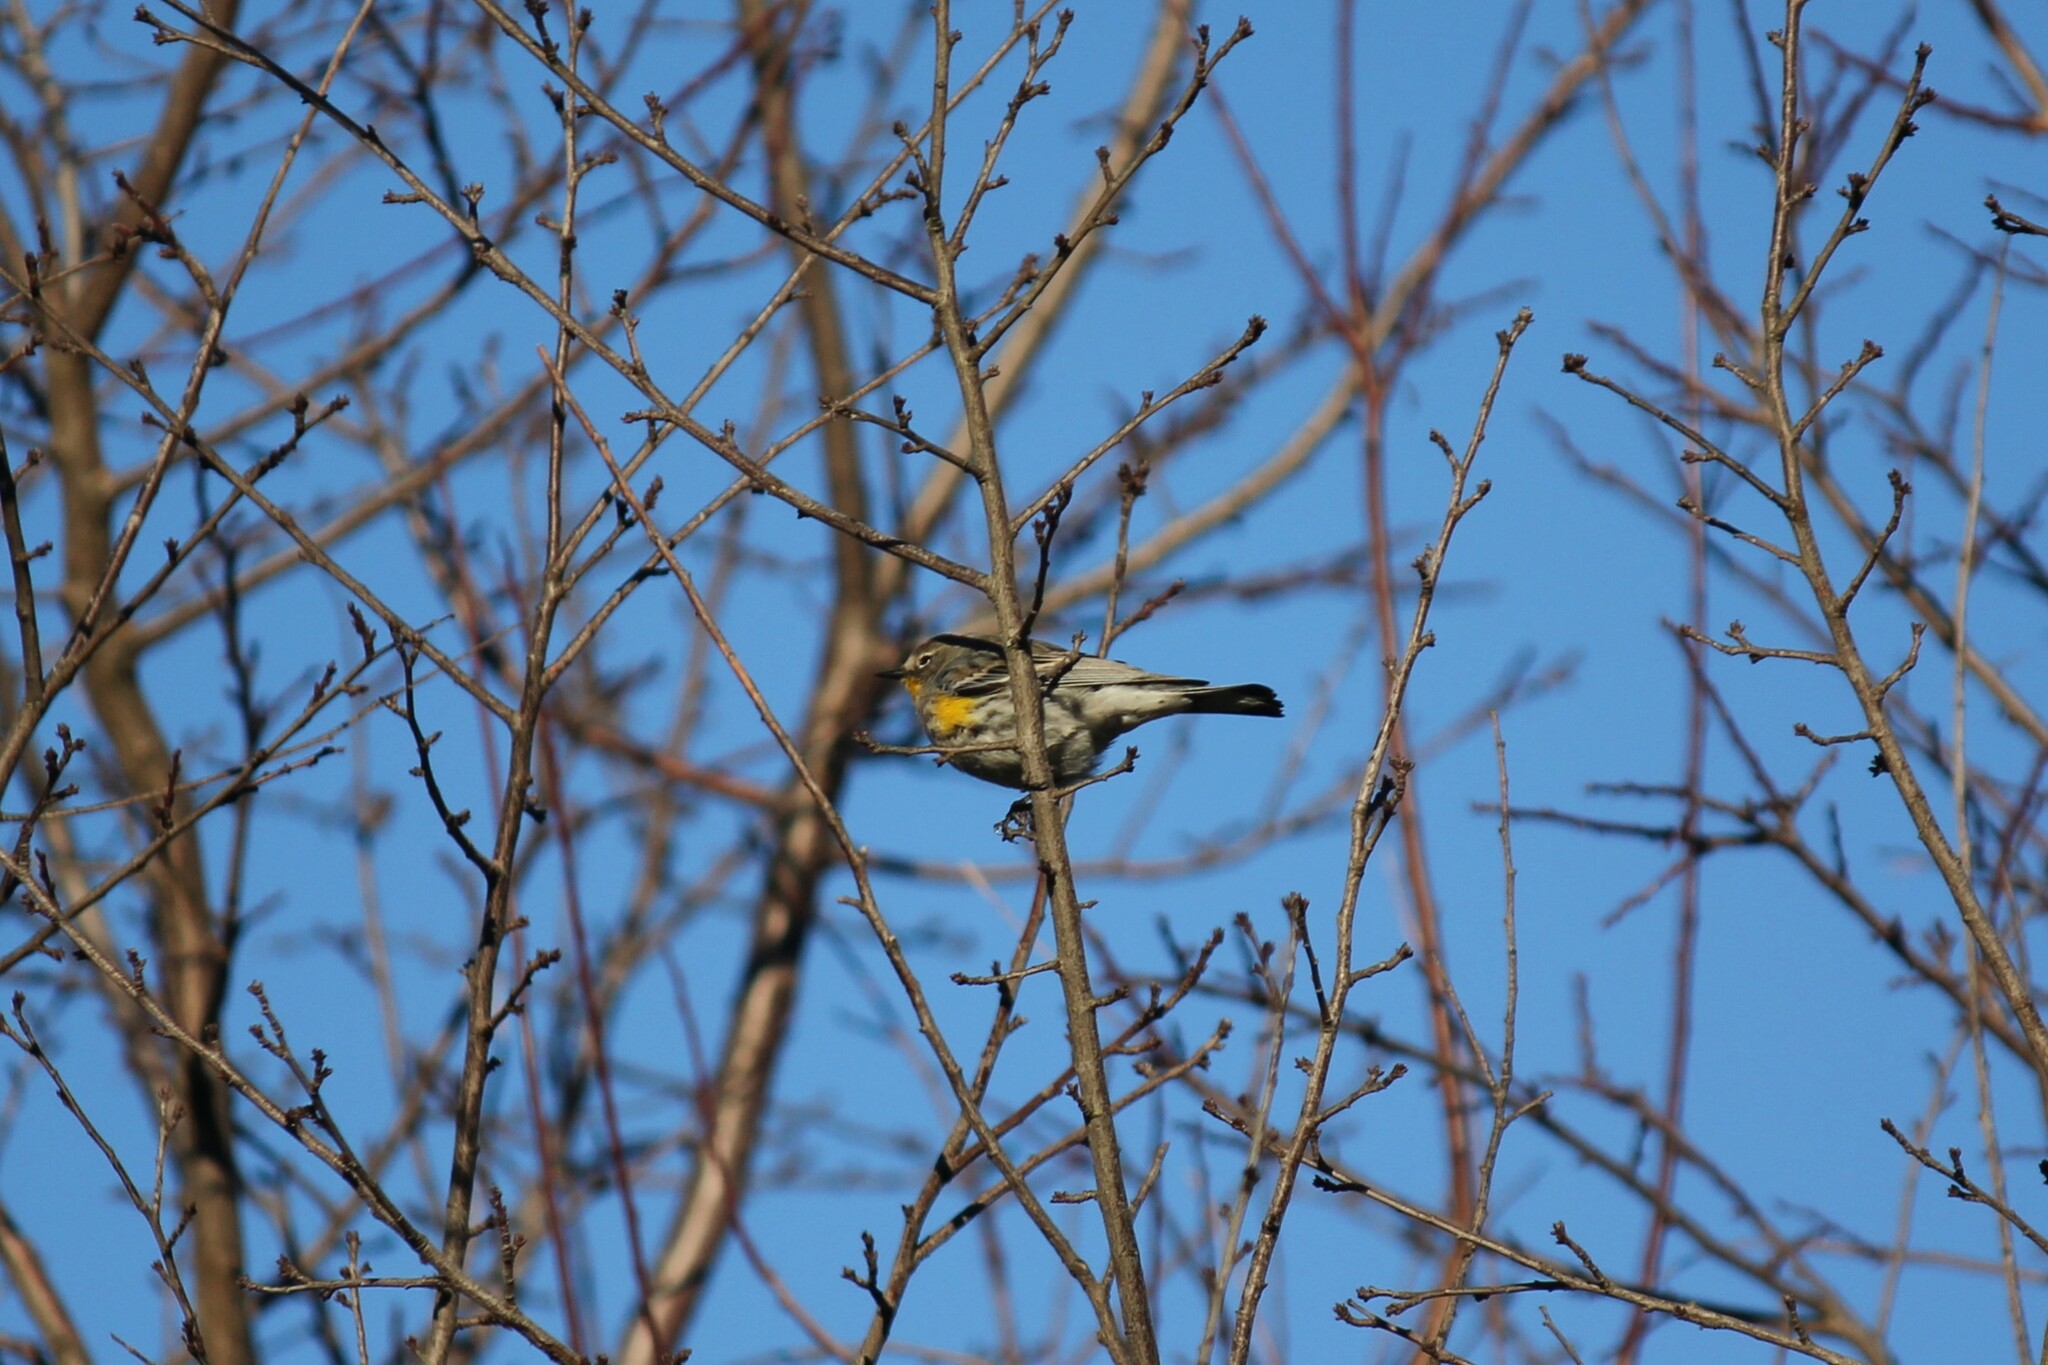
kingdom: Animalia
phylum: Chordata
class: Aves
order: Passeriformes
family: Parulidae
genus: Setophaga
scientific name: Setophaga coronata
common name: Myrtle warbler
